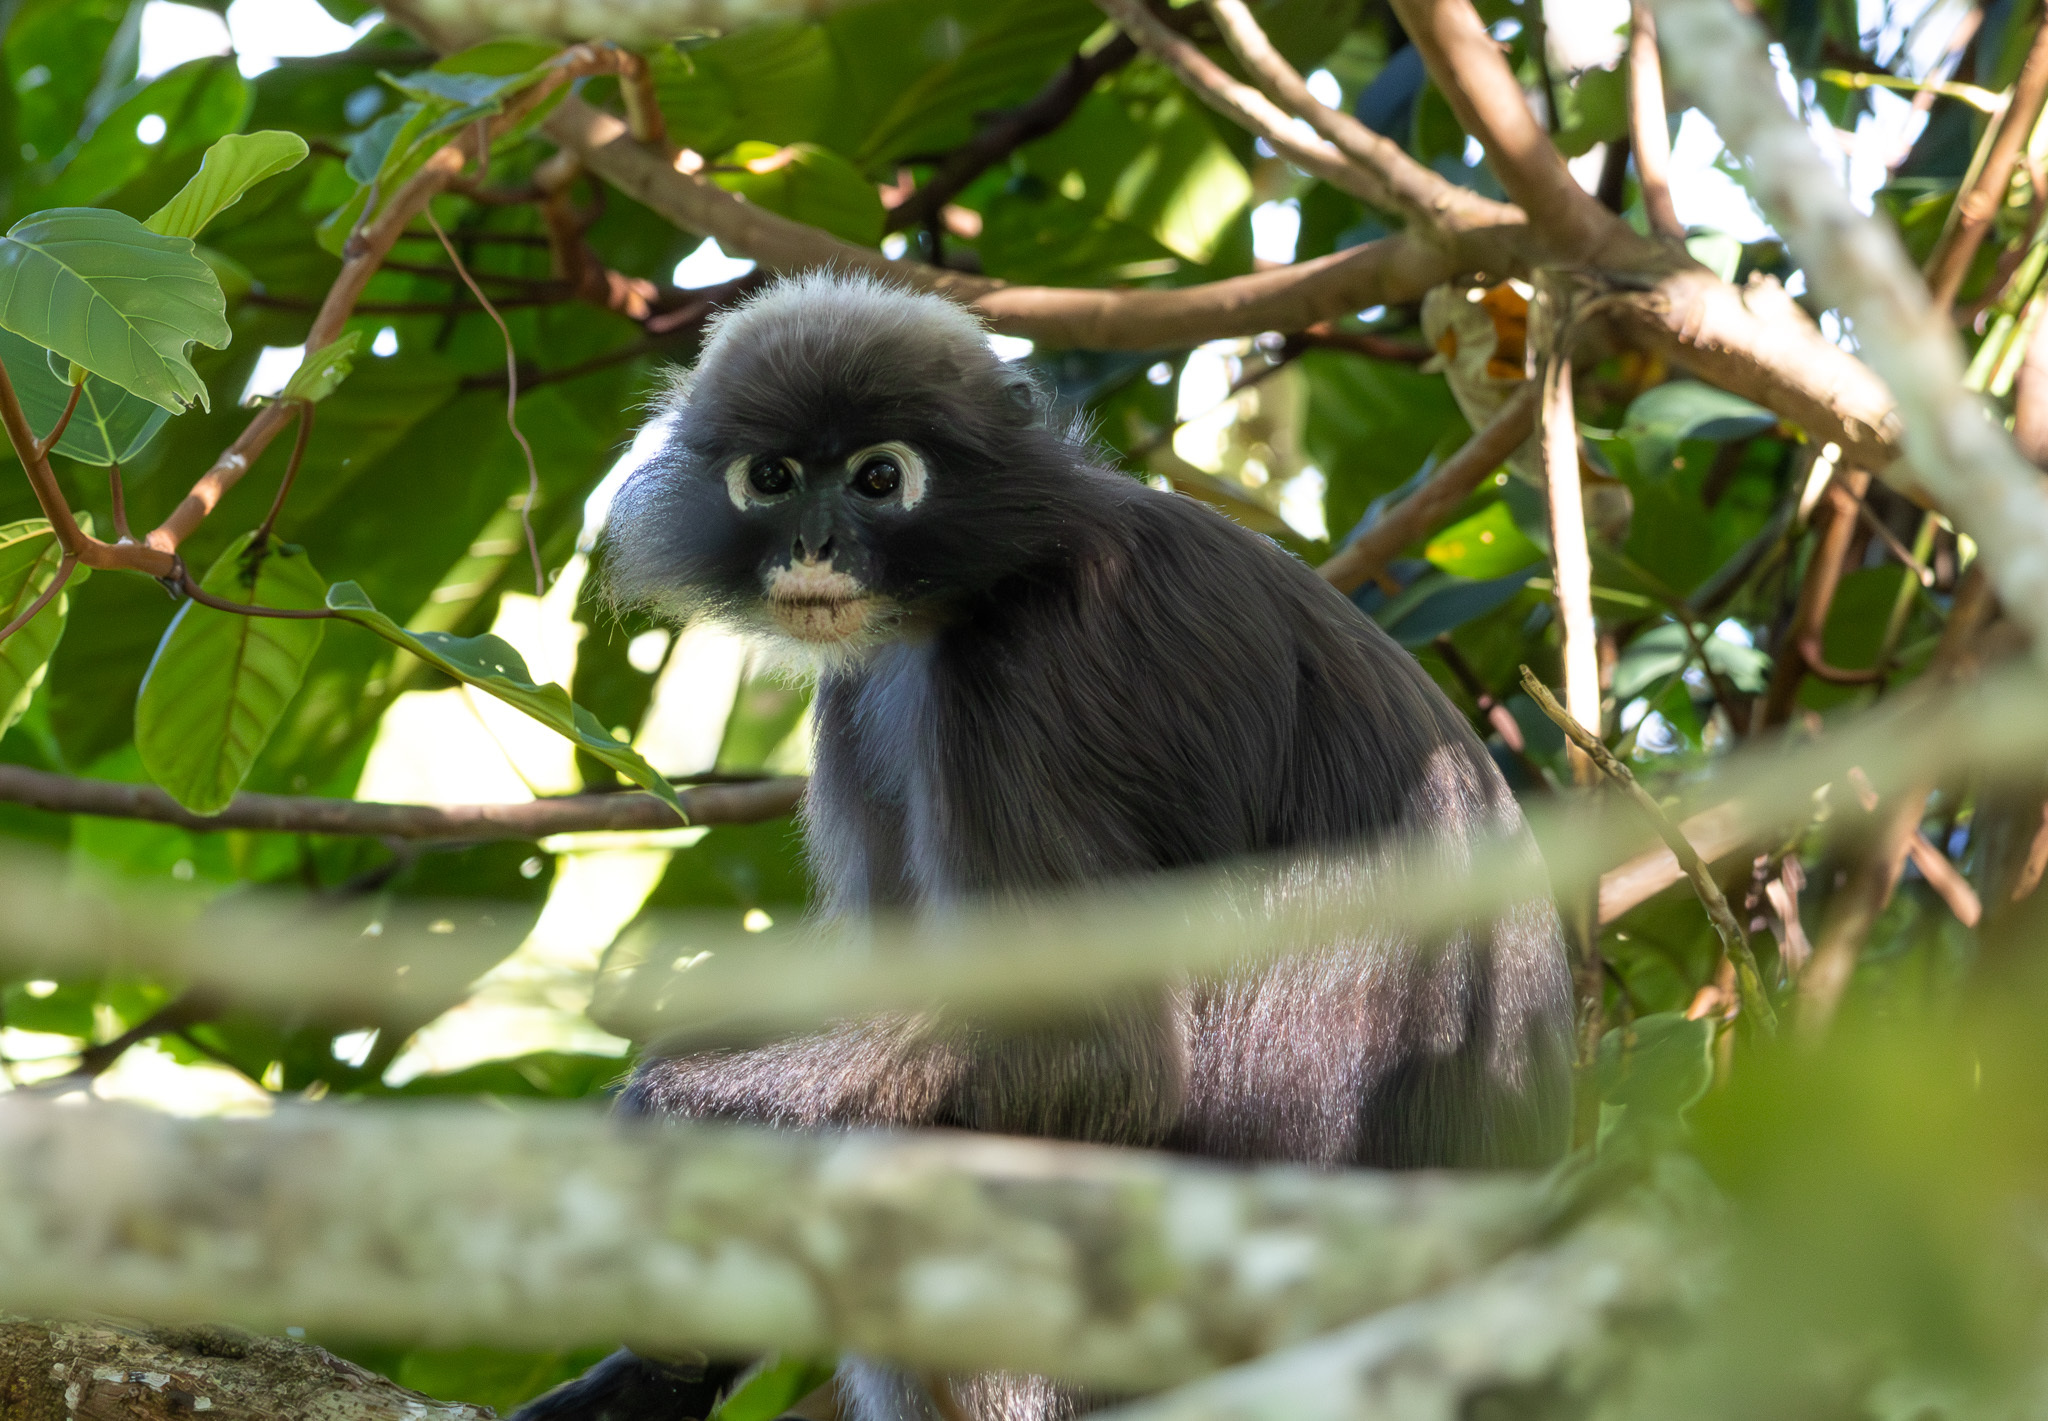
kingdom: Animalia
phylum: Chordata
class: Mammalia
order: Primates
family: Cercopithecidae
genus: Trachypithecus
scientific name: Trachypithecus obscurus
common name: Dusky leaf-monkey
